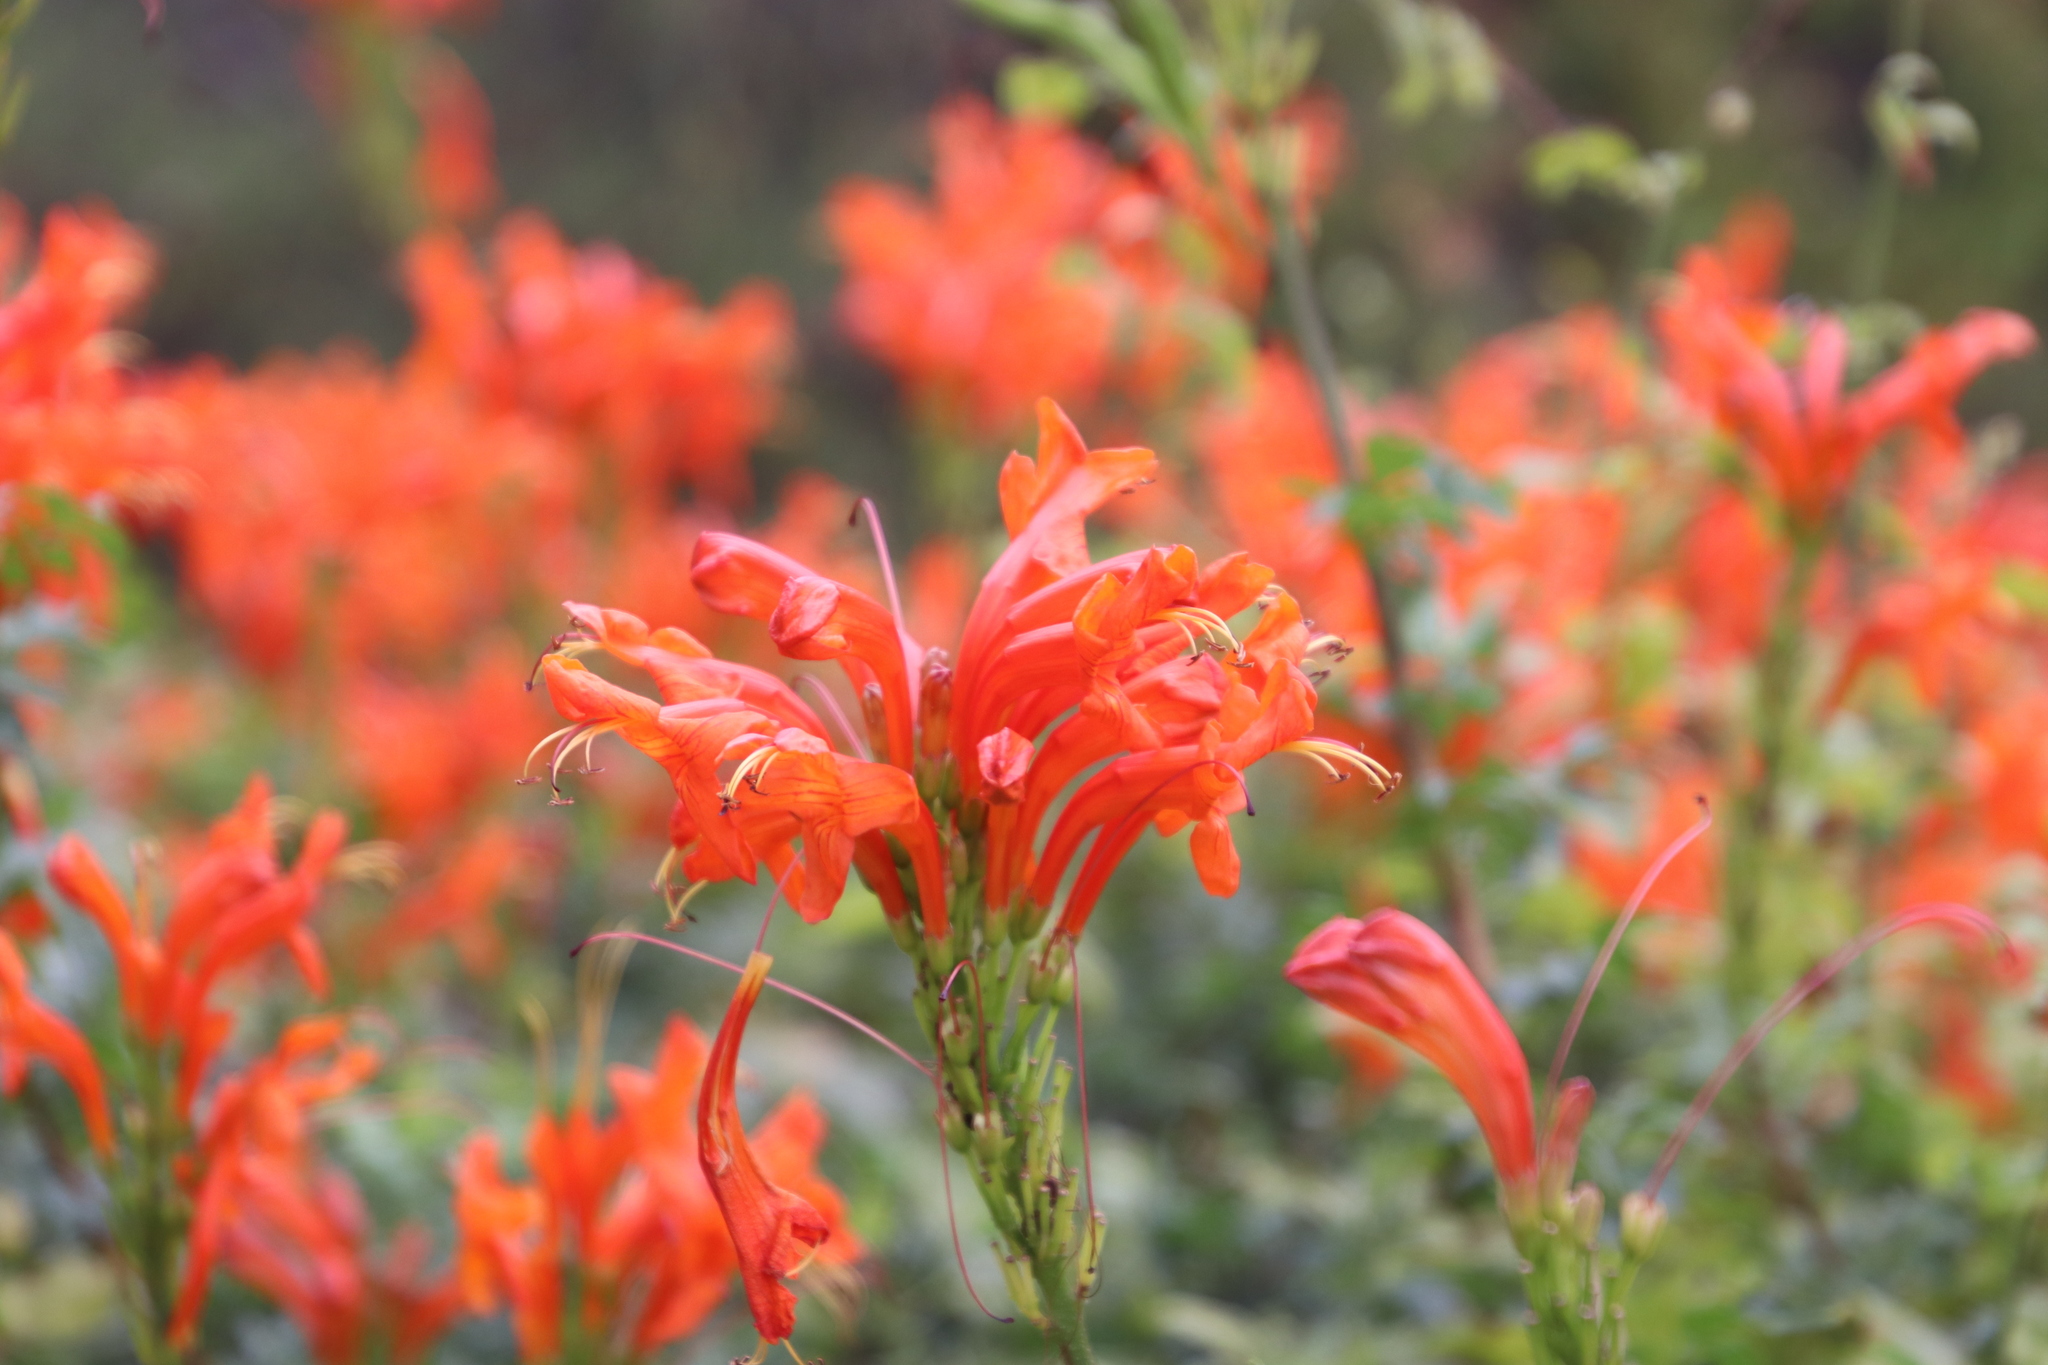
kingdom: Plantae
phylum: Tracheophyta
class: Magnoliopsida
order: Lamiales
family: Bignoniaceae
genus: Tecomaria
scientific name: Tecomaria capensis
